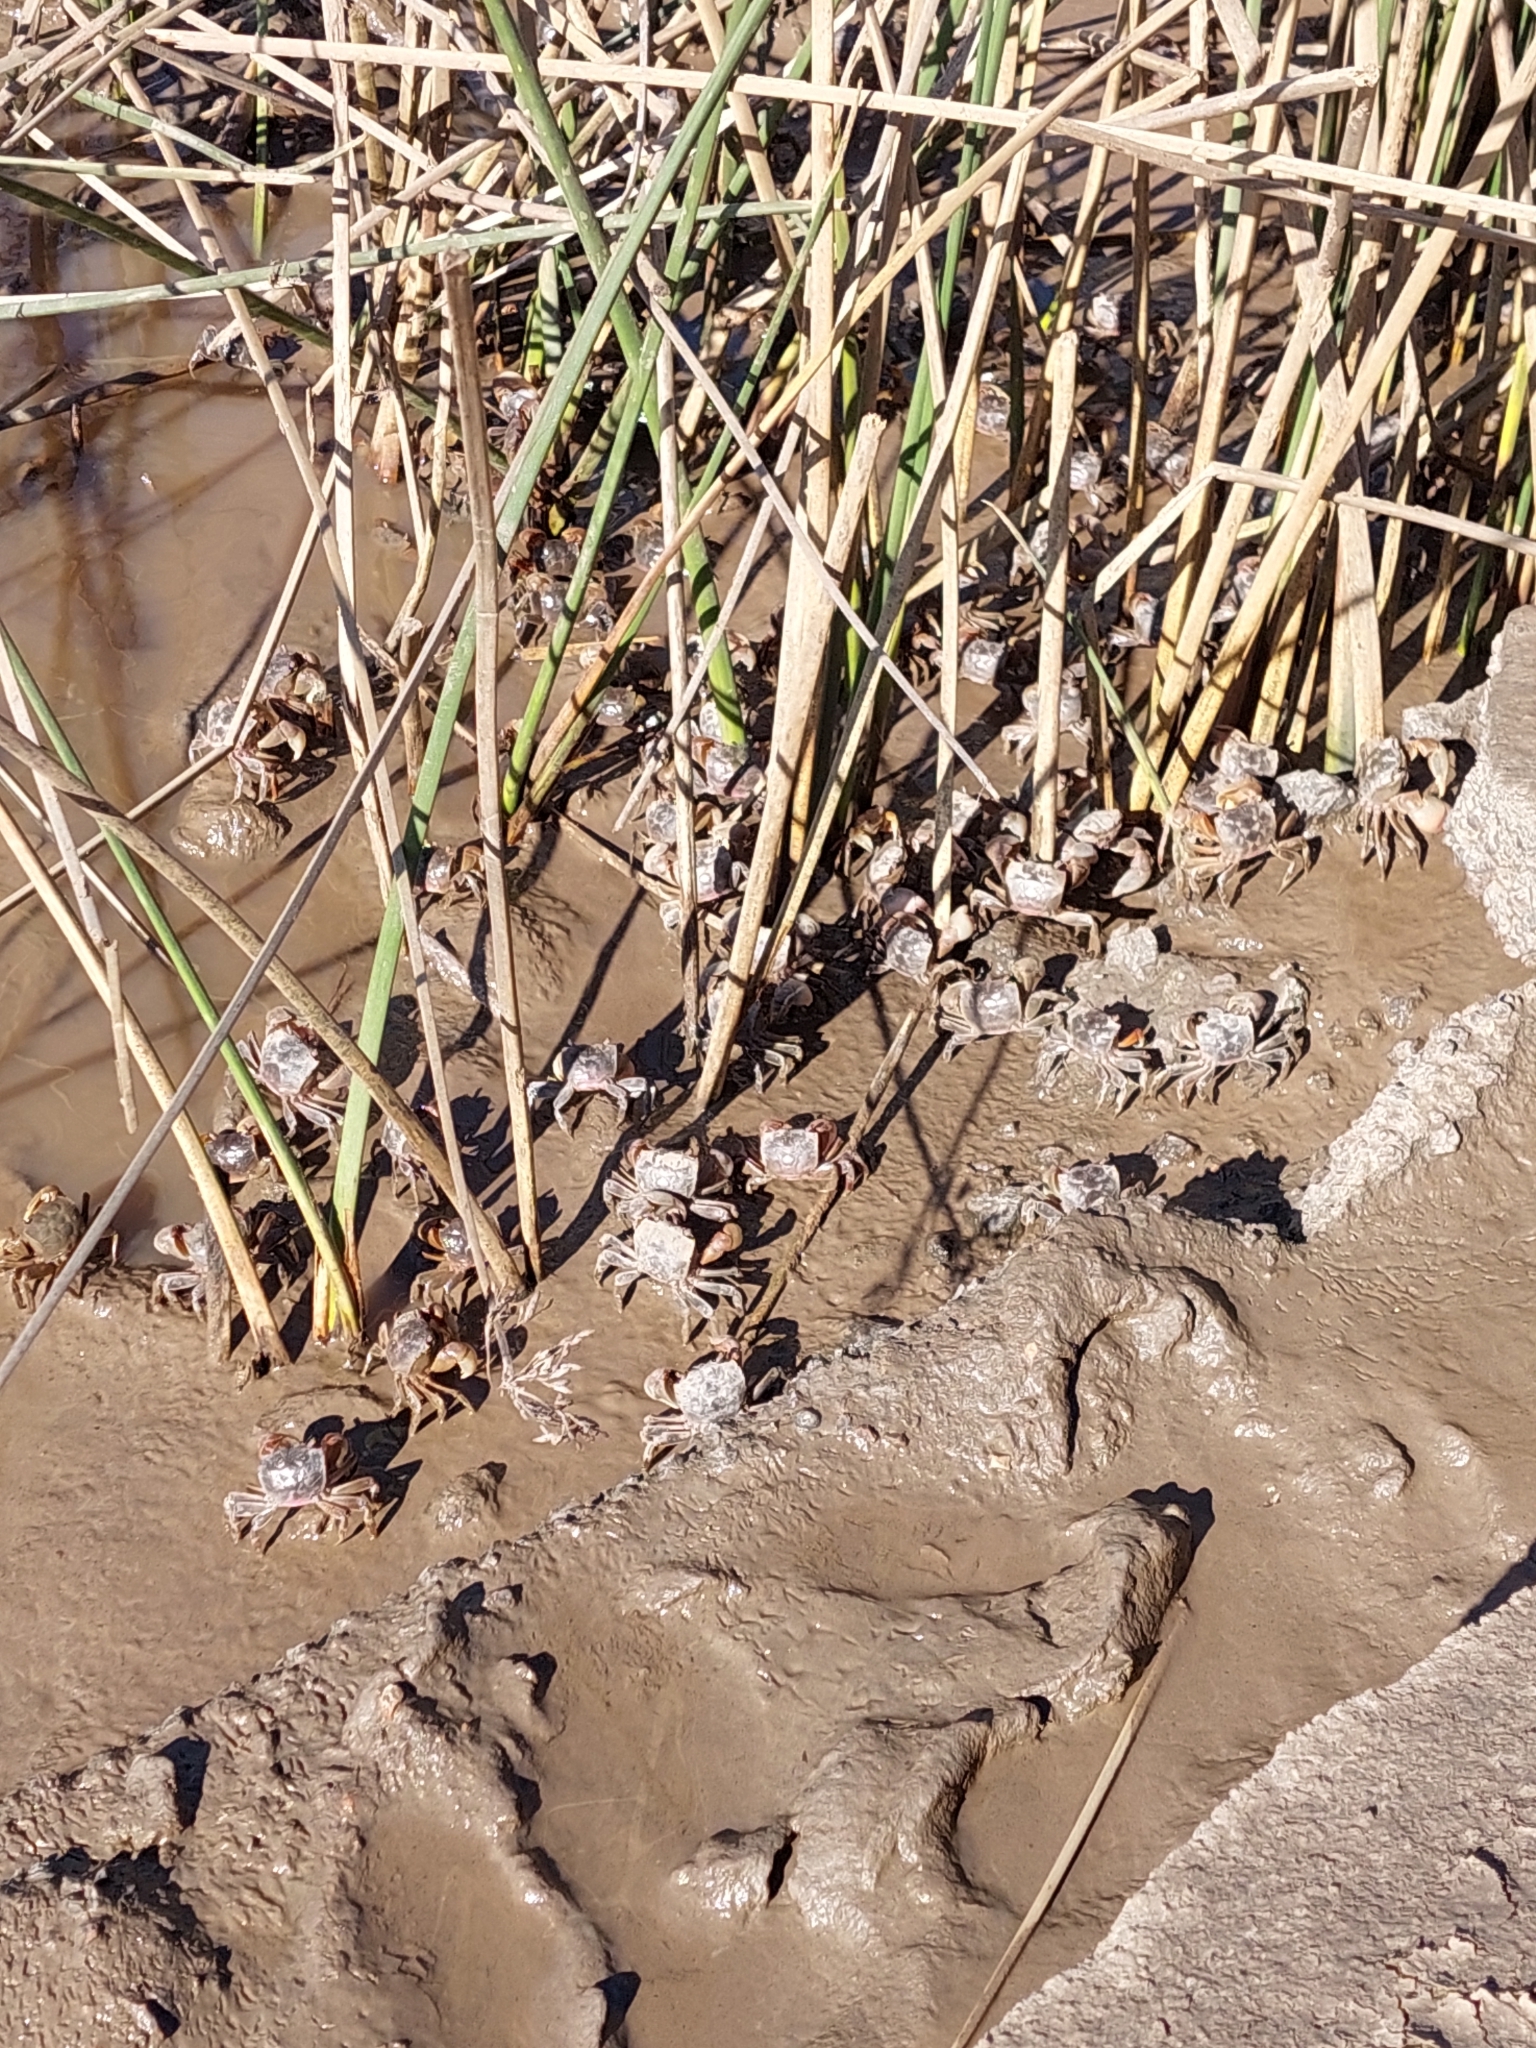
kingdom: Animalia
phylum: Arthropoda
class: Malacostraca
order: Decapoda
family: Varunidae
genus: Neohelice
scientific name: Neohelice granulata
